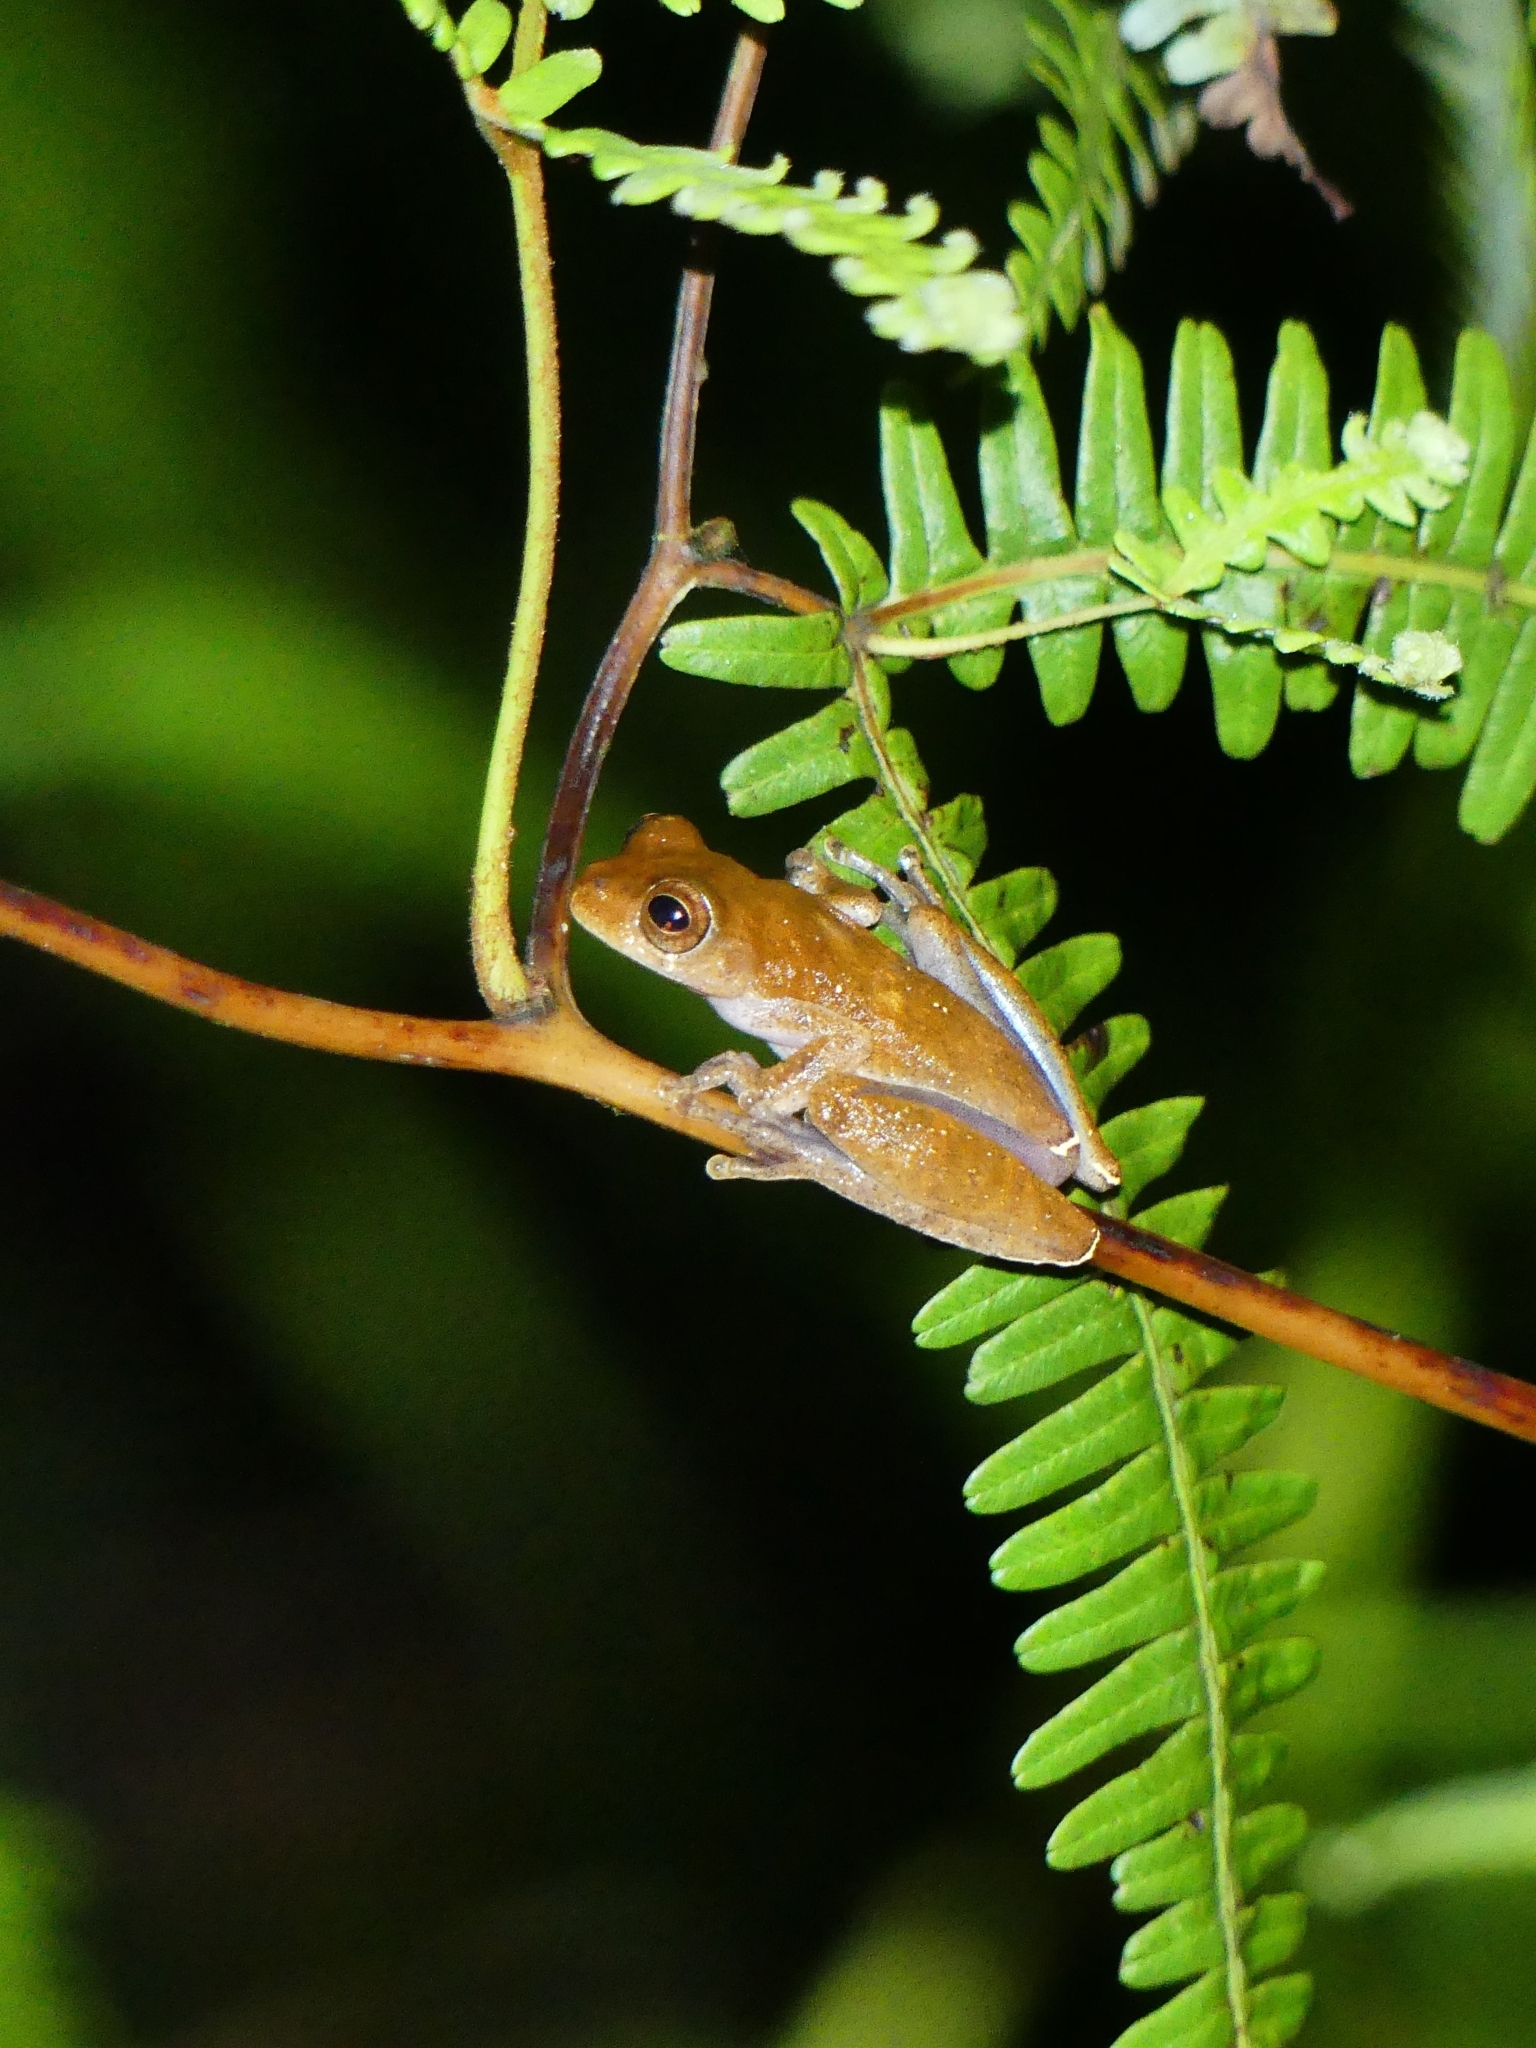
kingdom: Animalia
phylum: Chordata
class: Amphibia
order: Anura
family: Hylidae
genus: Dendropsophus
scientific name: Dendropsophus minutus
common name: Lesser treefrog
